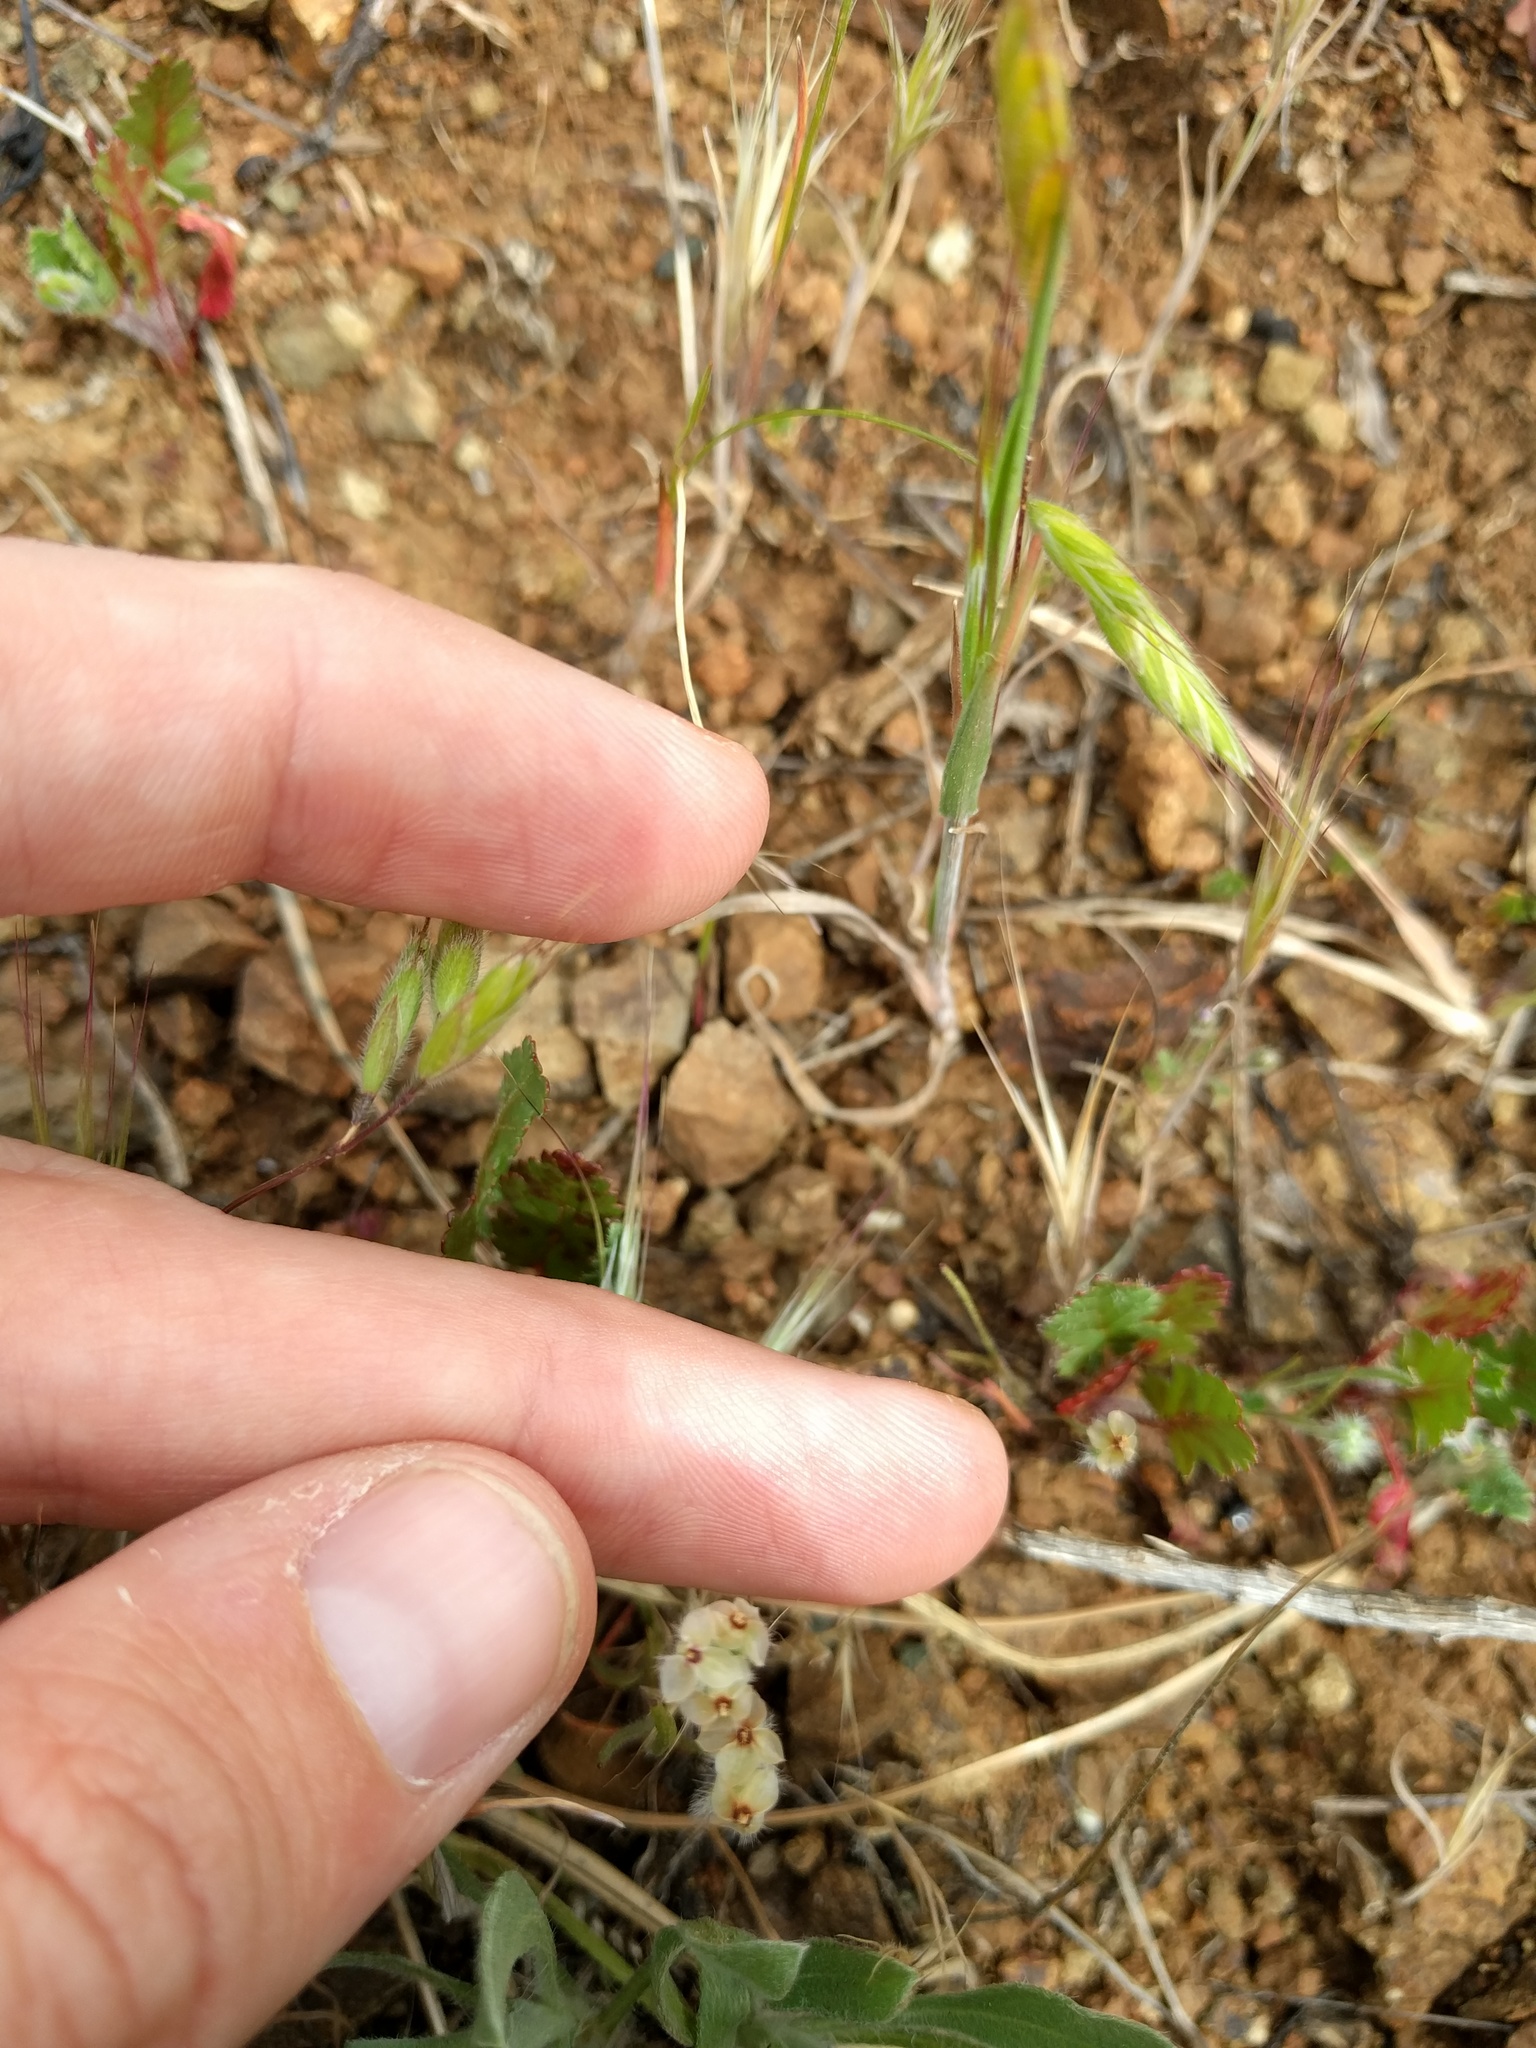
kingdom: Plantae
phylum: Tracheophyta
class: Magnoliopsida
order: Lamiales
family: Plantaginaceae
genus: Plantago
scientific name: Plantago erecta
